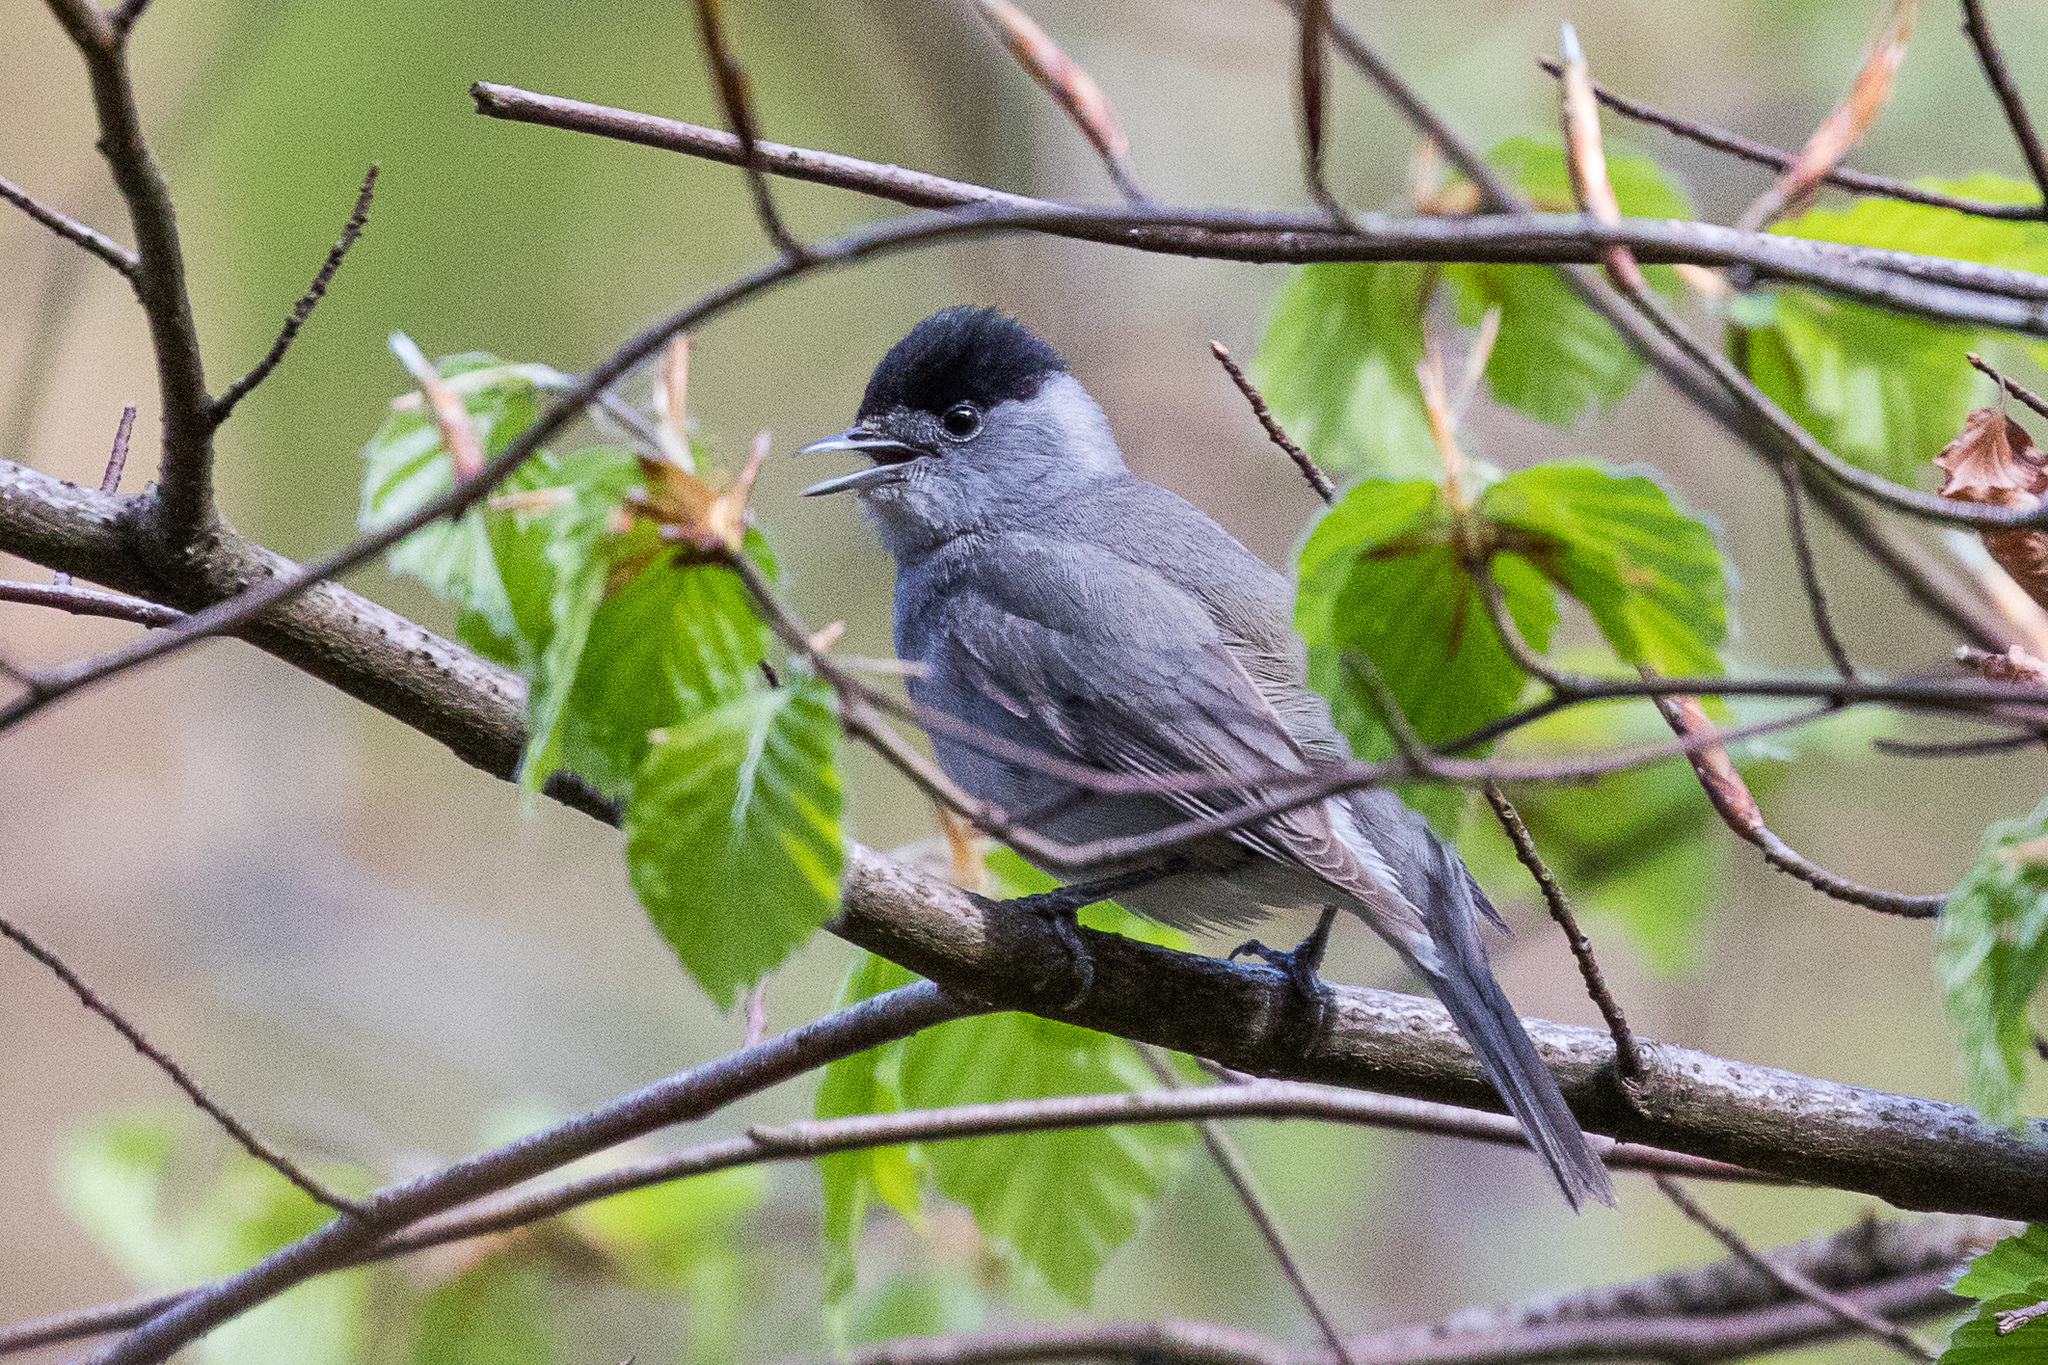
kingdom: Animalia
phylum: Chordata
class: Aves
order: Passeriformes
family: Sylviidae
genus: Sylvia
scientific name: Sylvia atricapilla
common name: Eurasian blackcap
